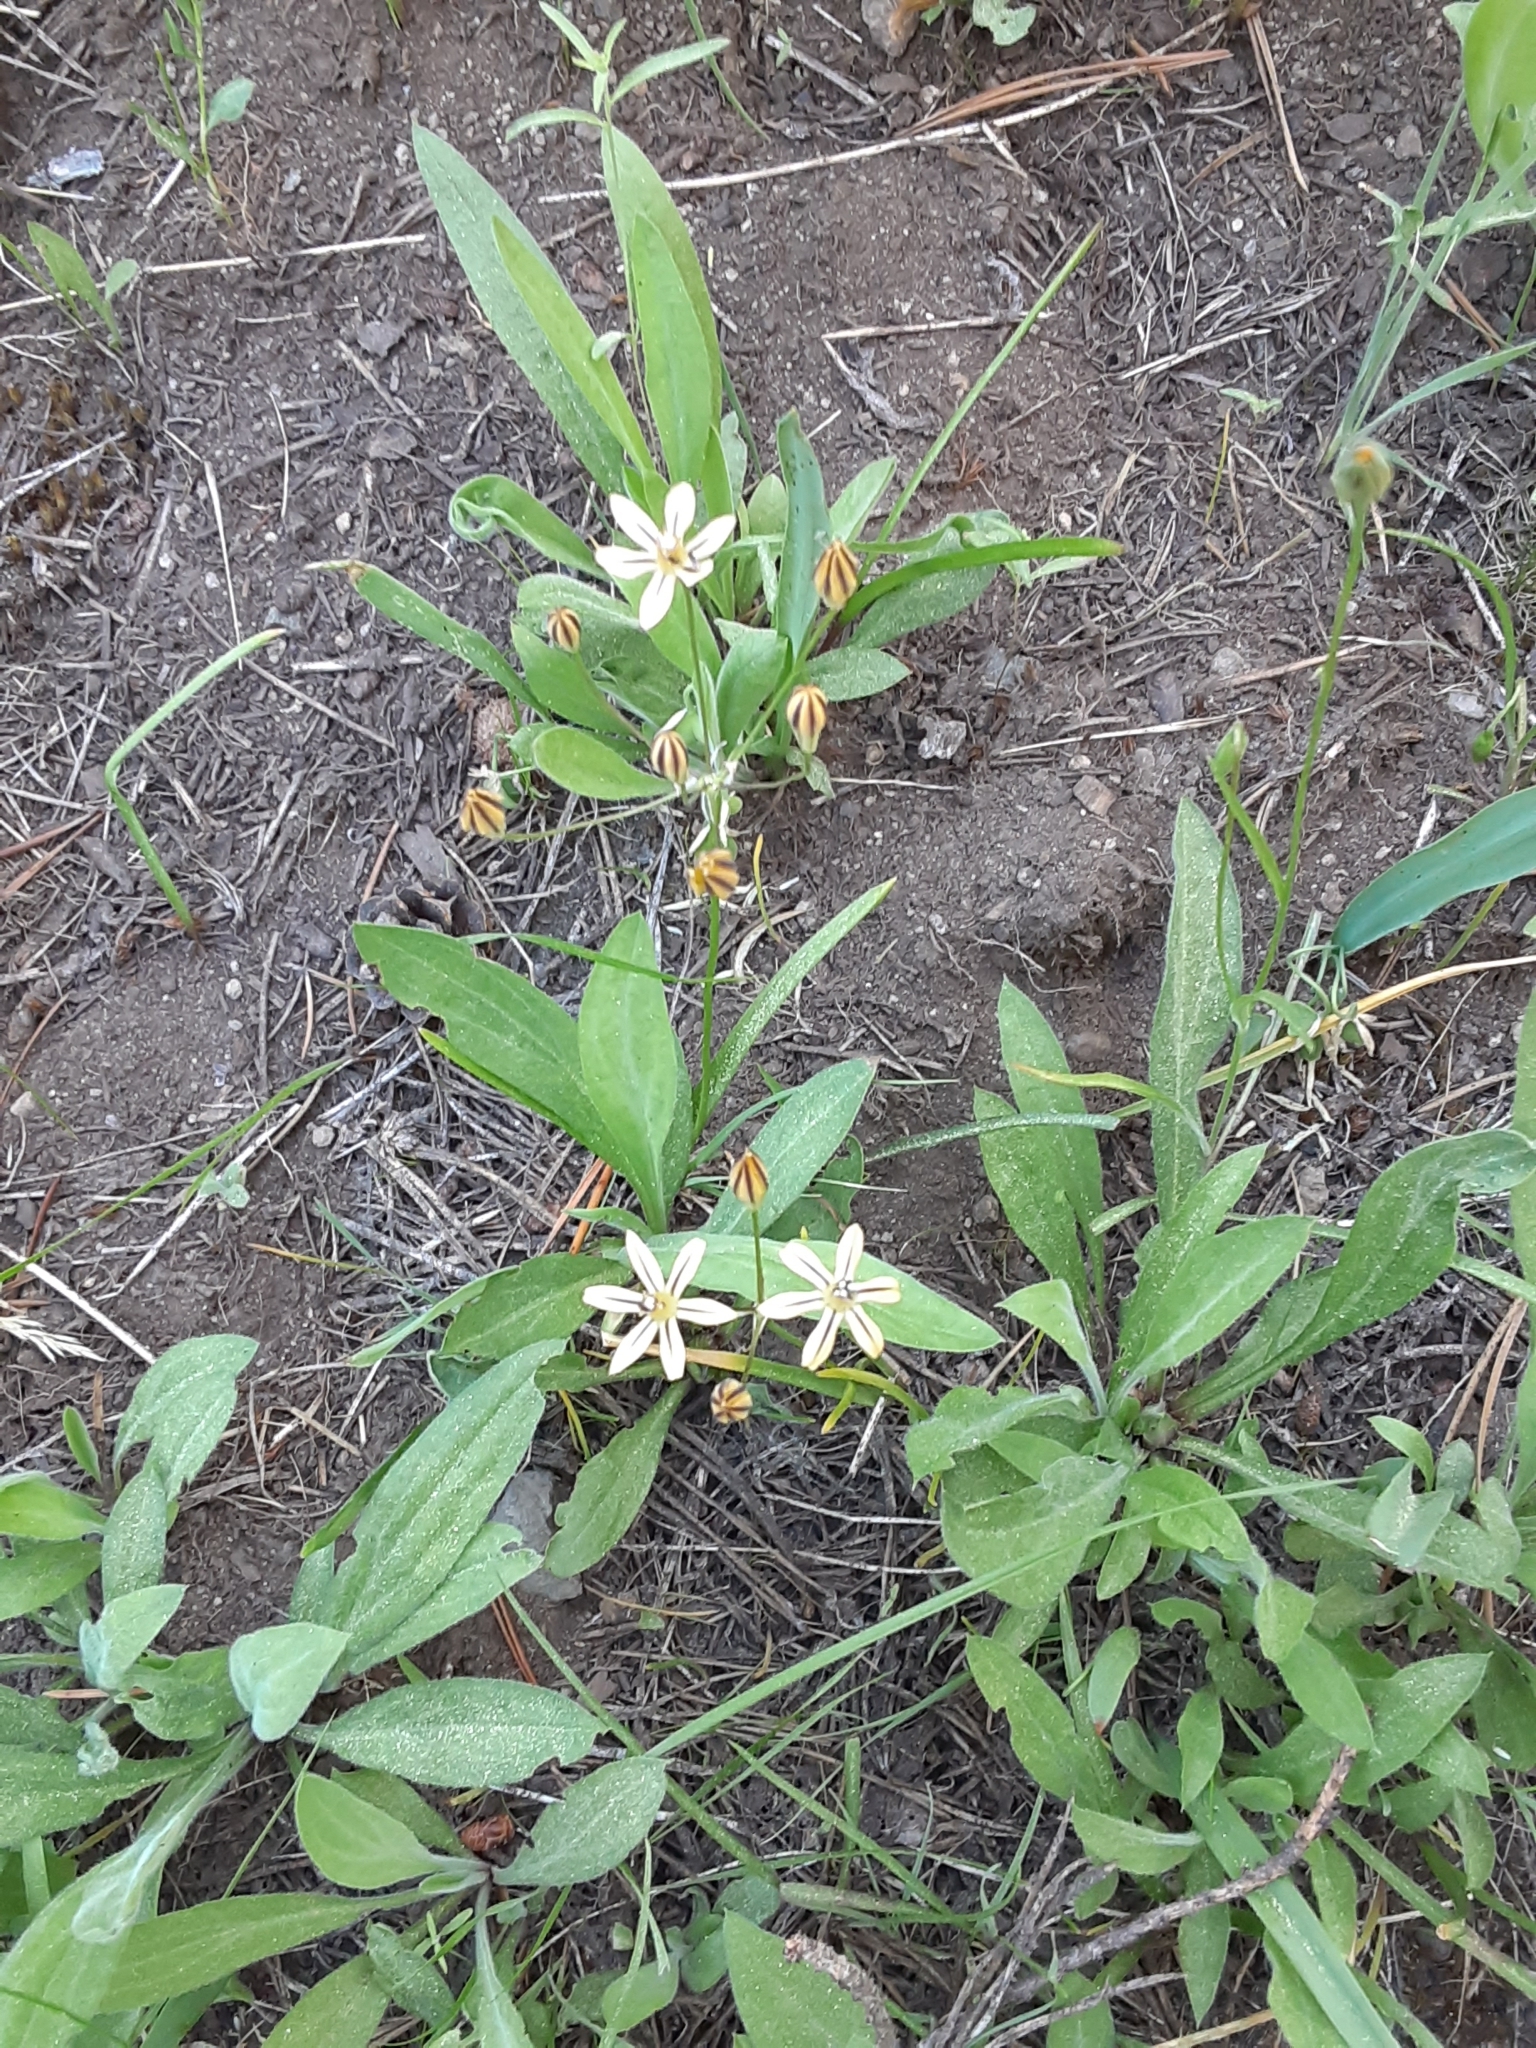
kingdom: Plantae
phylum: Tracheophyta
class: Liliopsida
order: Asparagales
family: Asparagaceae
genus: Triteleia
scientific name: Triteleia ixioides
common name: Yellow-brodiaea
